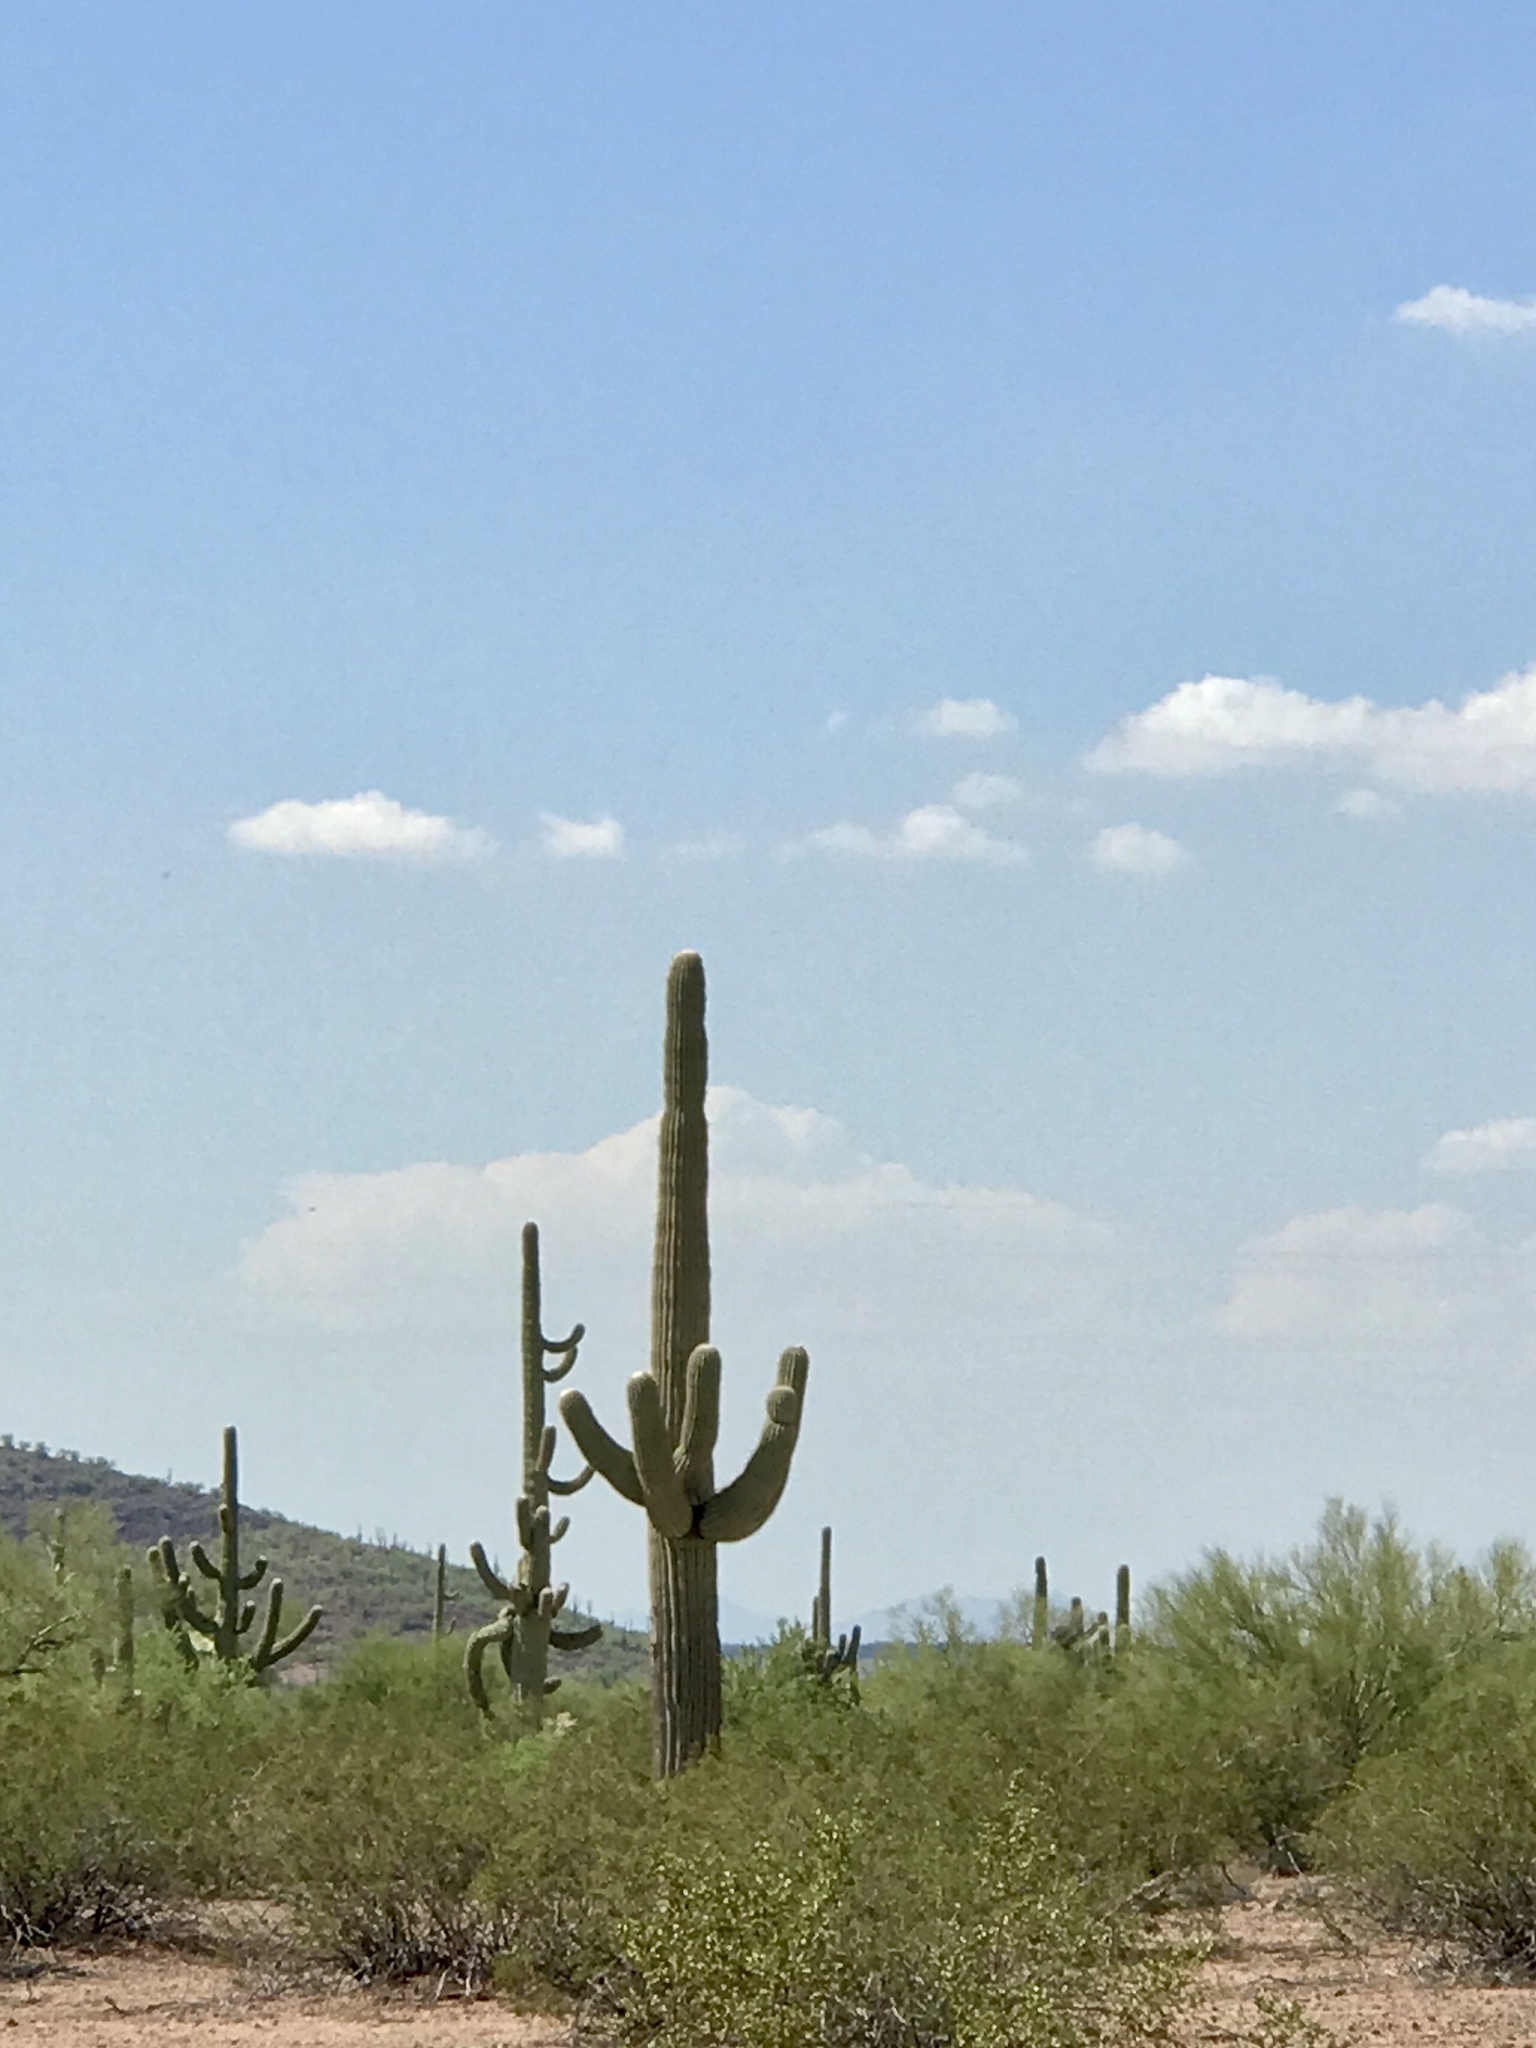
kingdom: Plantae
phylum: Tracheophyta
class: Magnoliopsida
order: Caryophyllales
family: Cactaceae
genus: Carnegiea
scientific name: Carnegiea gigantea
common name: Saguaro
